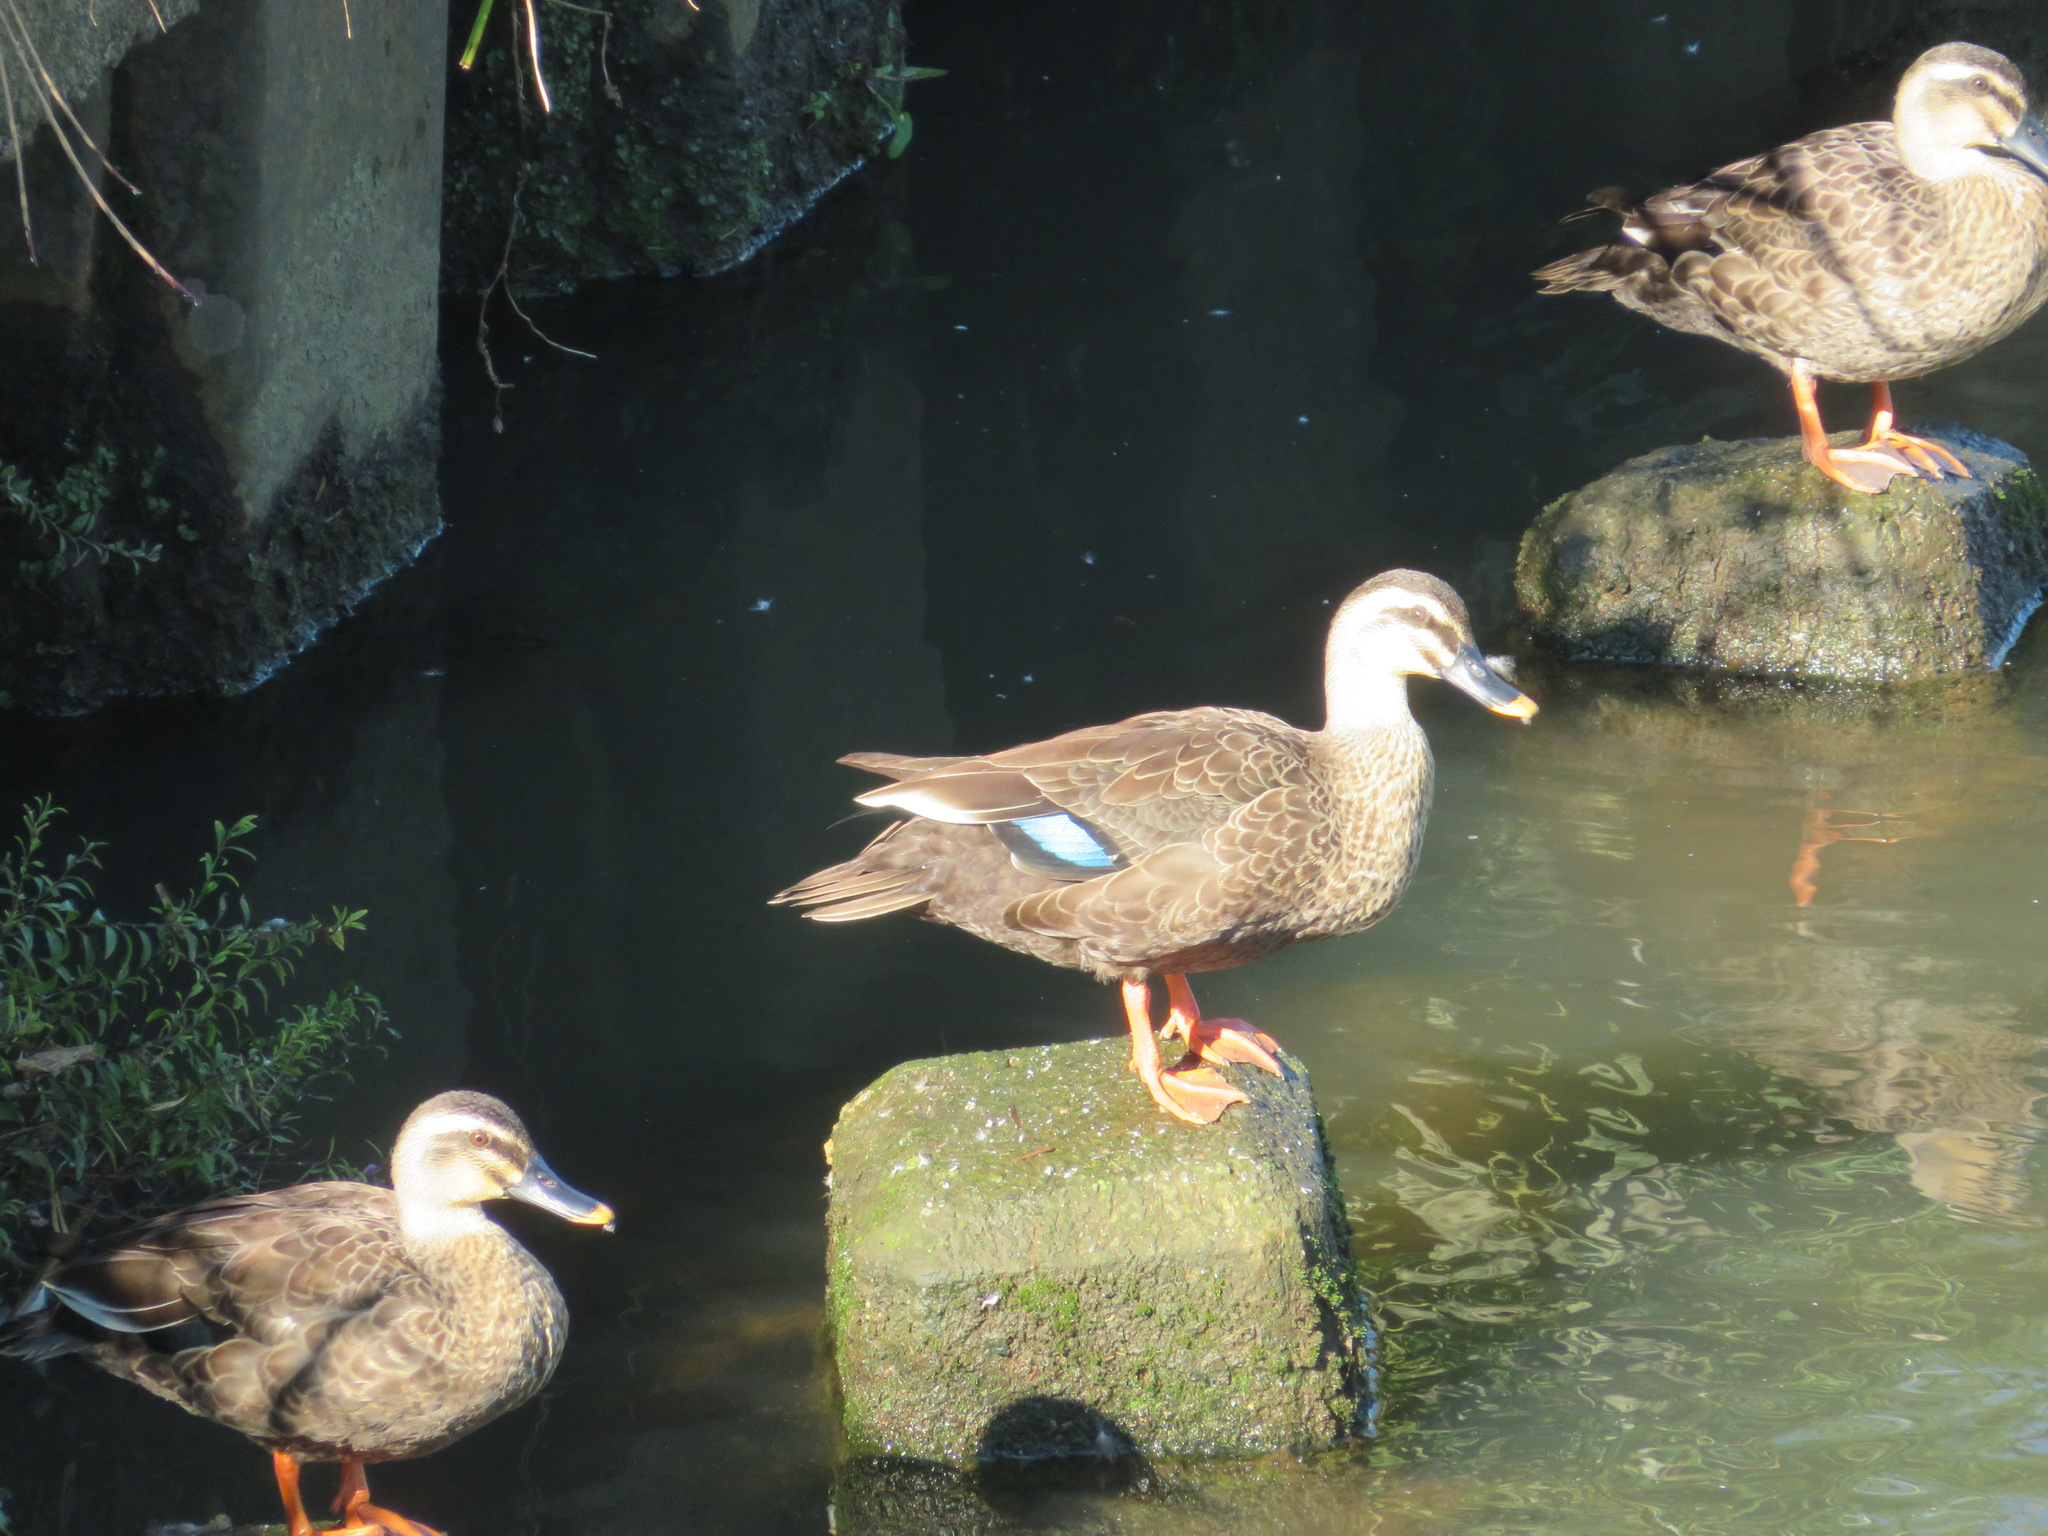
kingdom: Animalia
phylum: Chordata
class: Aves
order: Anseriformes
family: Anatidae
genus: Anas
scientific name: Anas zonorhyncha
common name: Eastern spot-billed duck
